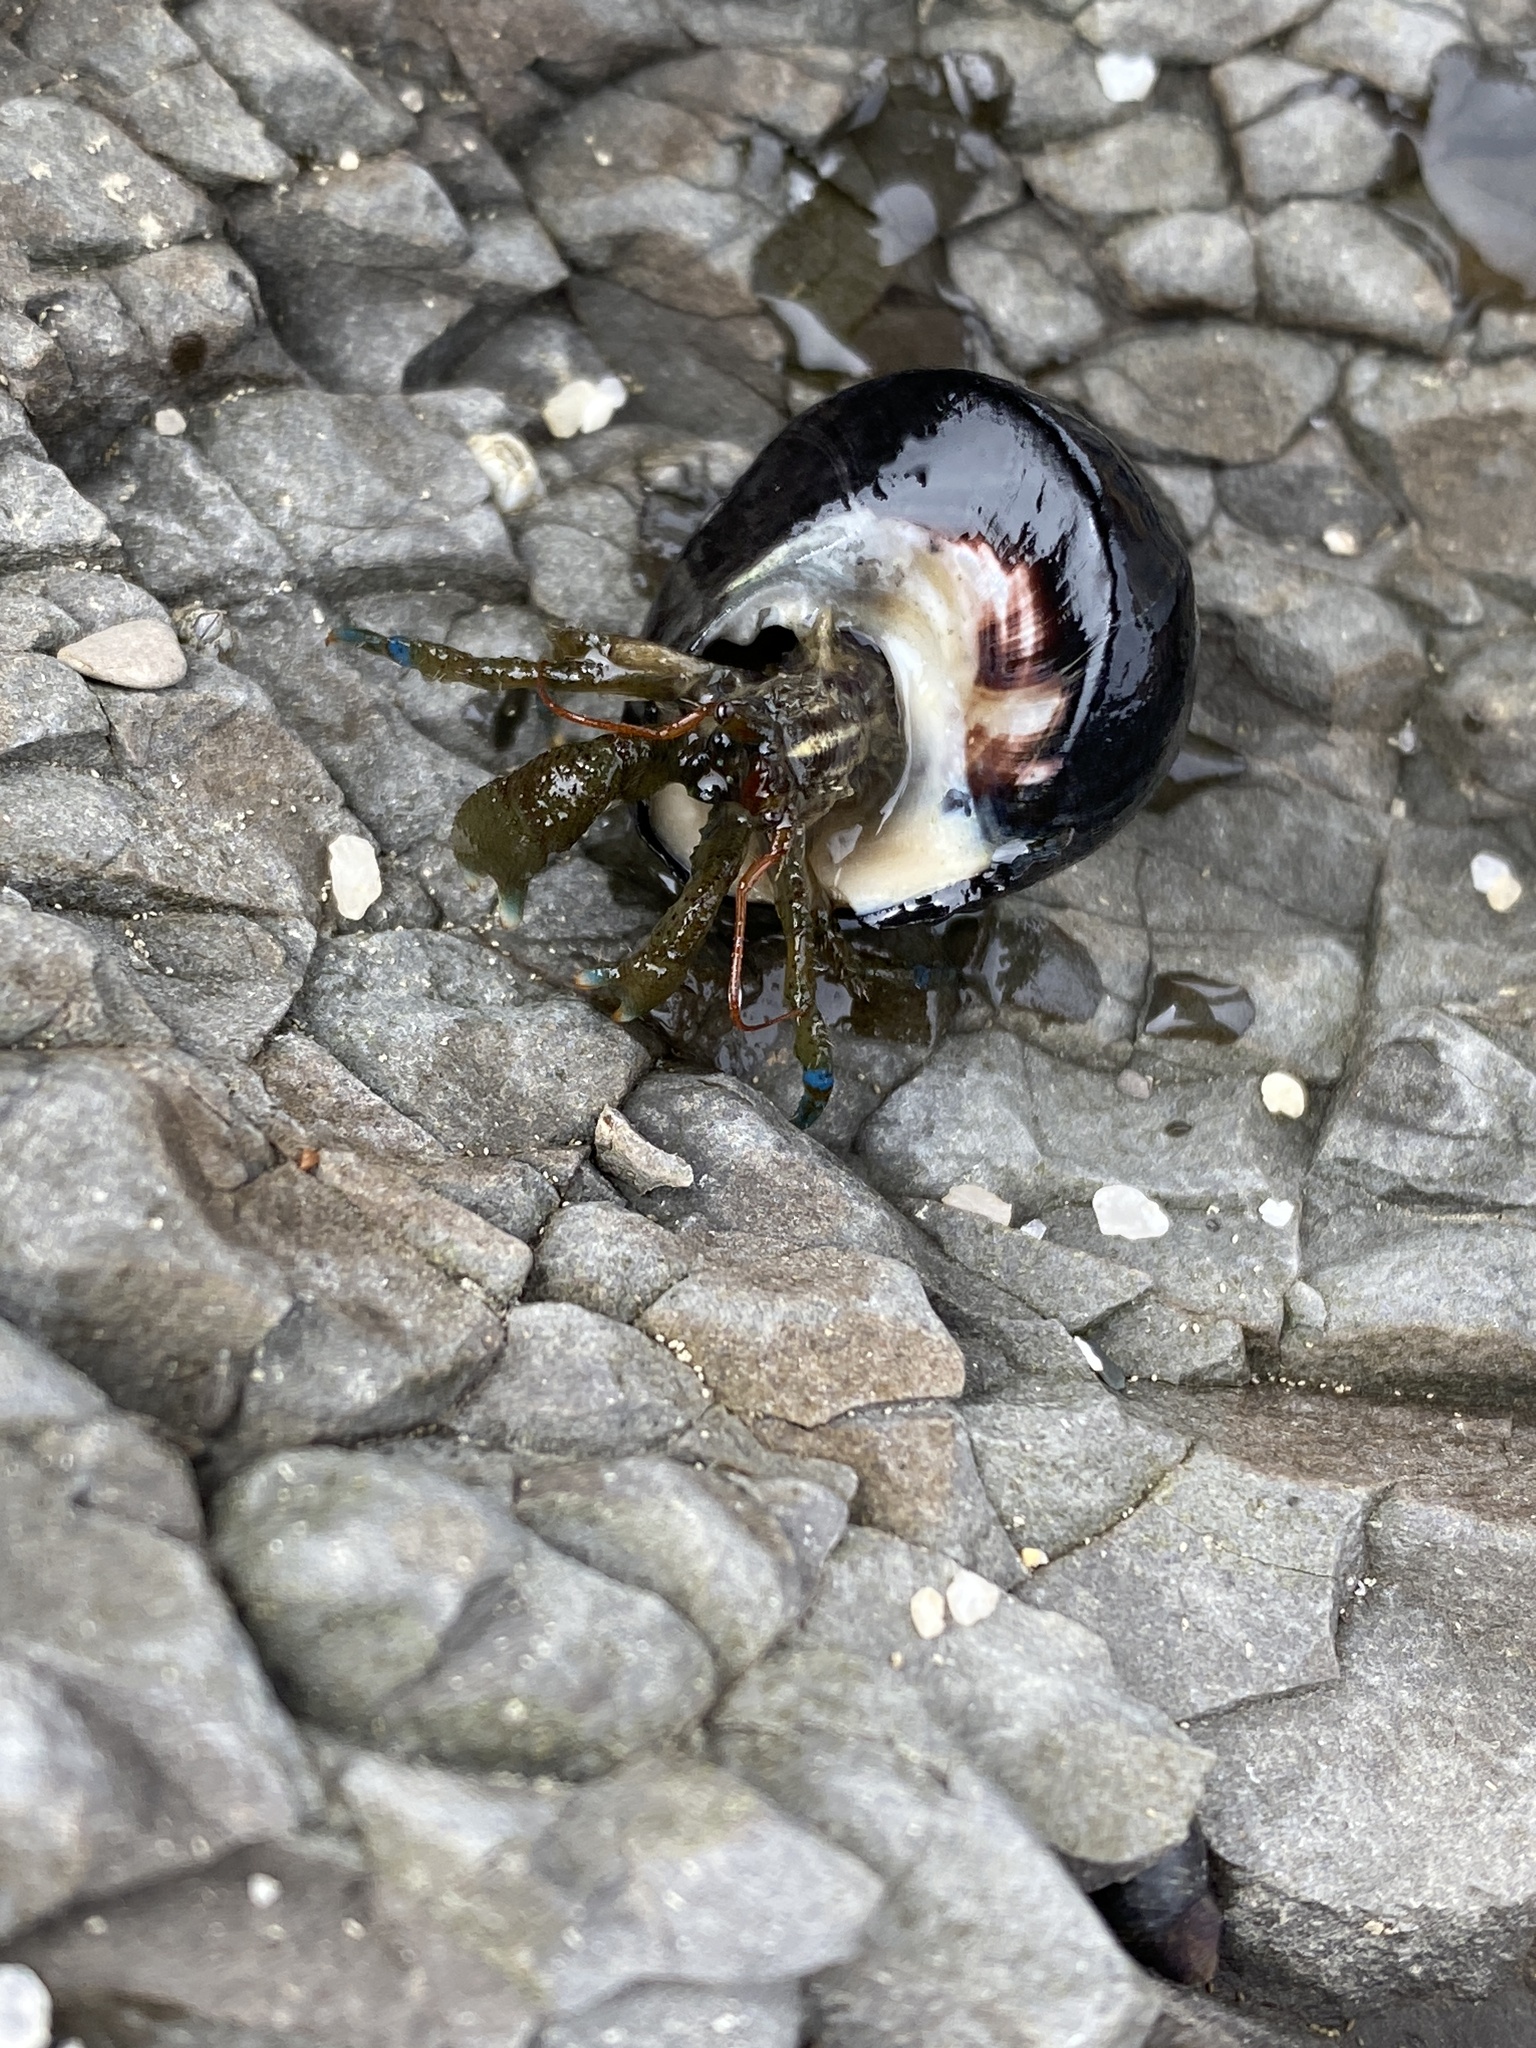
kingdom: Animalia
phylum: Arthropoda
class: Malacostraca
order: Decapoda
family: Paguridae
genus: Pagurus
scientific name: Pagurus samuelis
